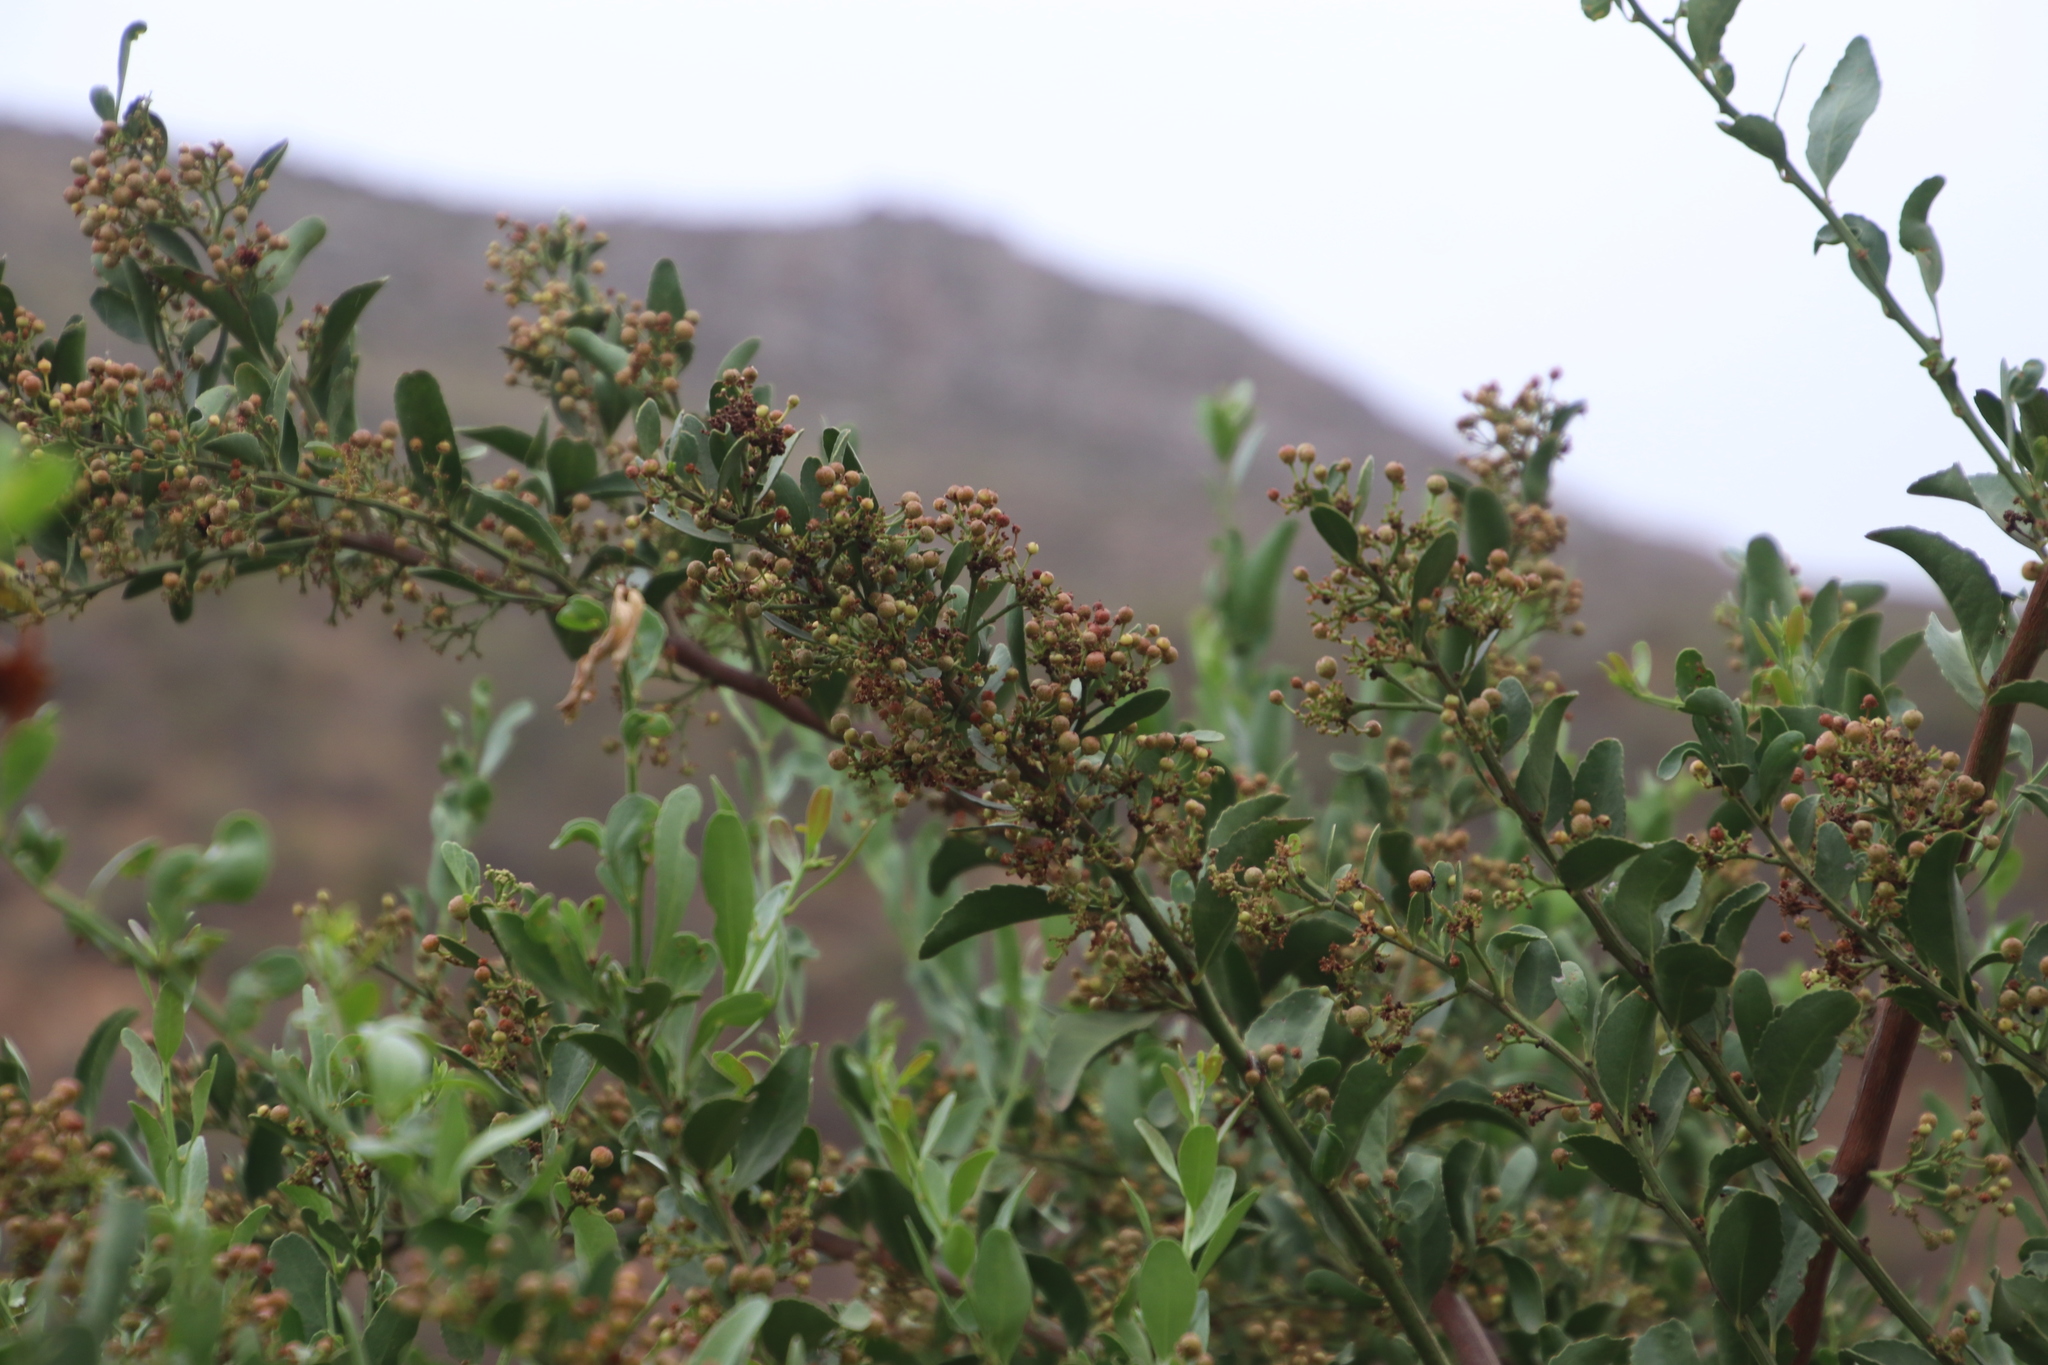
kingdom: Plantae
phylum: Tracheophyta
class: Magnoliopsida
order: Celastrales
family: Celastraceae
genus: Gymnosporia
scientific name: Gymnosporia buxifolia
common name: Common spike-thorn
